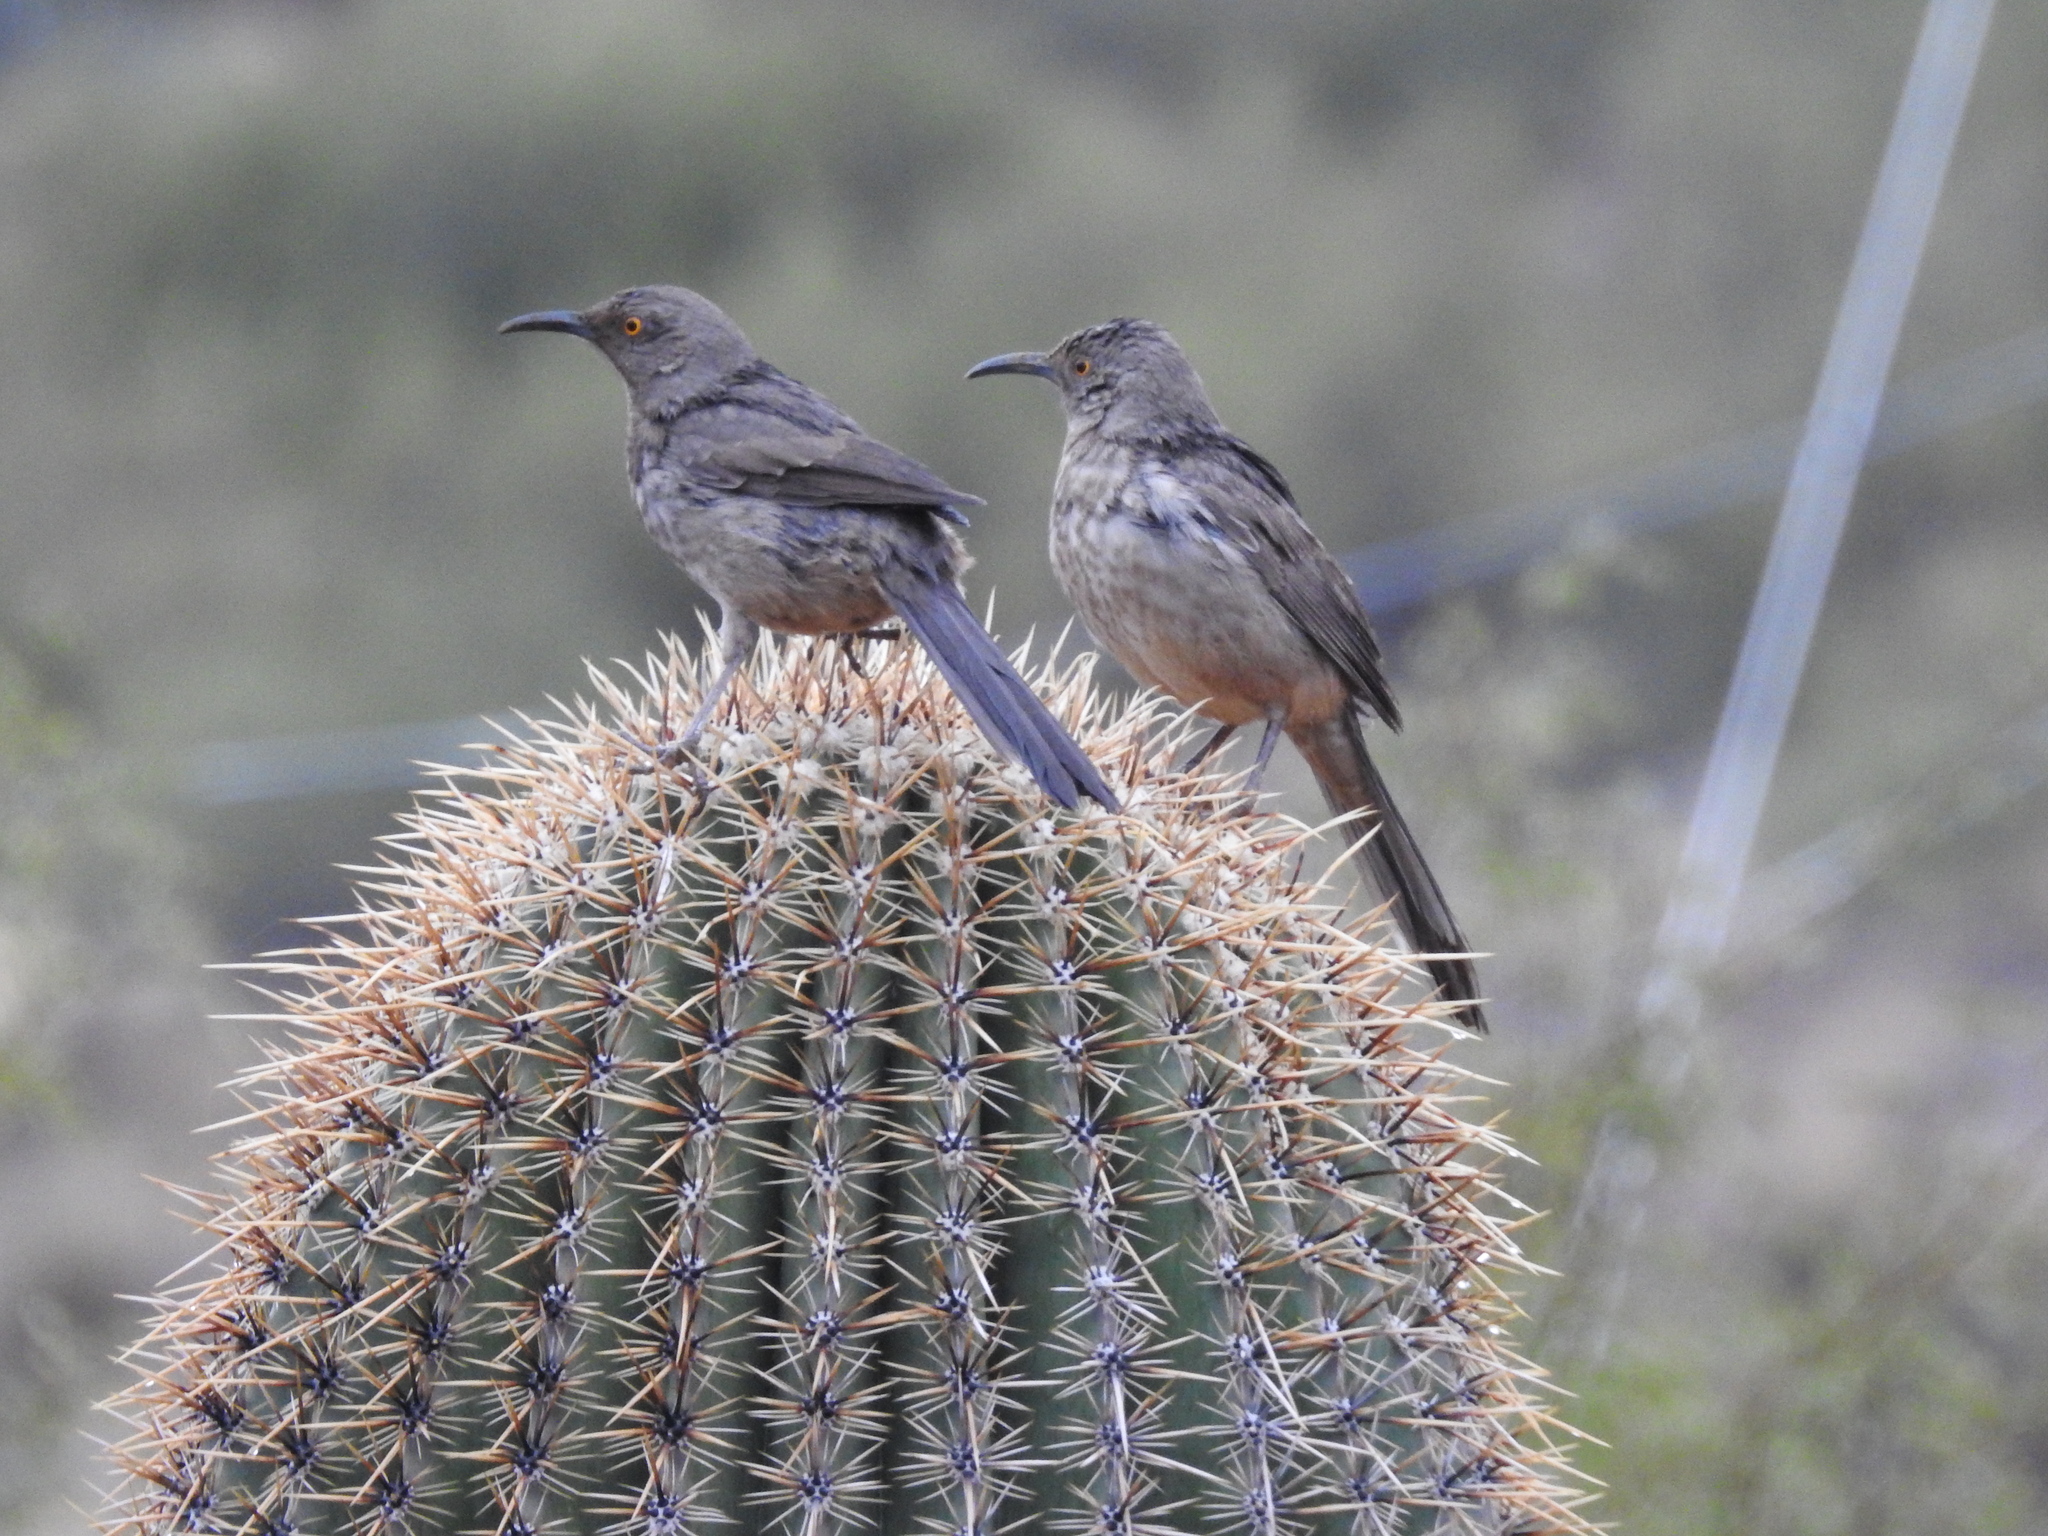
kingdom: Animalia
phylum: Chordata
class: Aves
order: Passeriformes
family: Mimidae
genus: Toxostoma
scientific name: Toxostoma curvirostre
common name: Curve-billed thrasher
